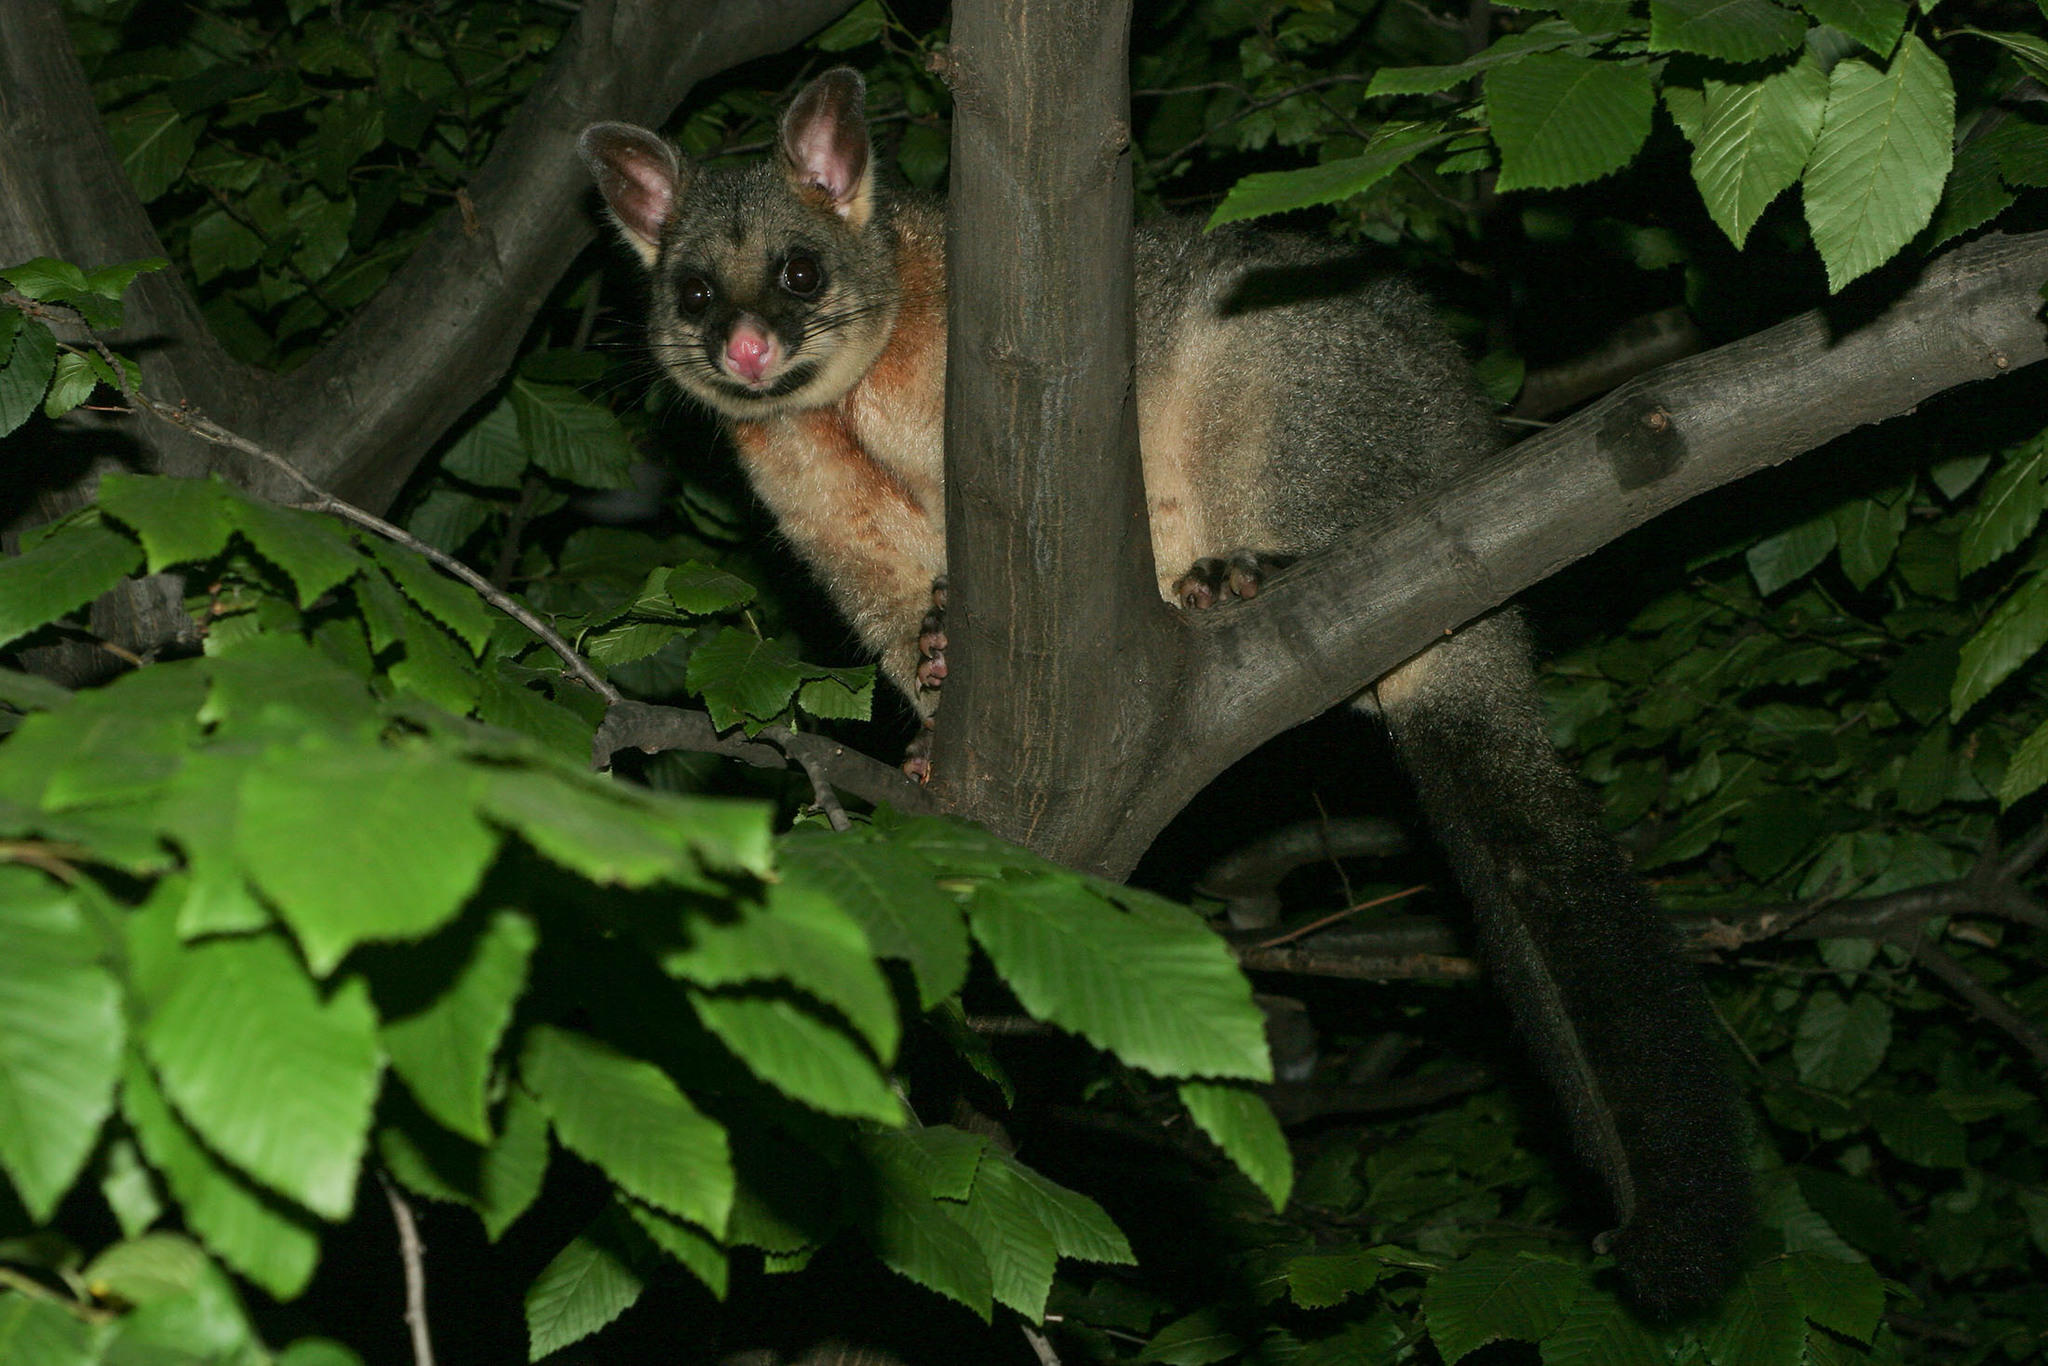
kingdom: Animalia
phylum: Chordata
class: Mammalia
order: Diprotodontia
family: Phalangeridae
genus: Trichosurus
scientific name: Trichosurus vulpecula
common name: Common brushtail
